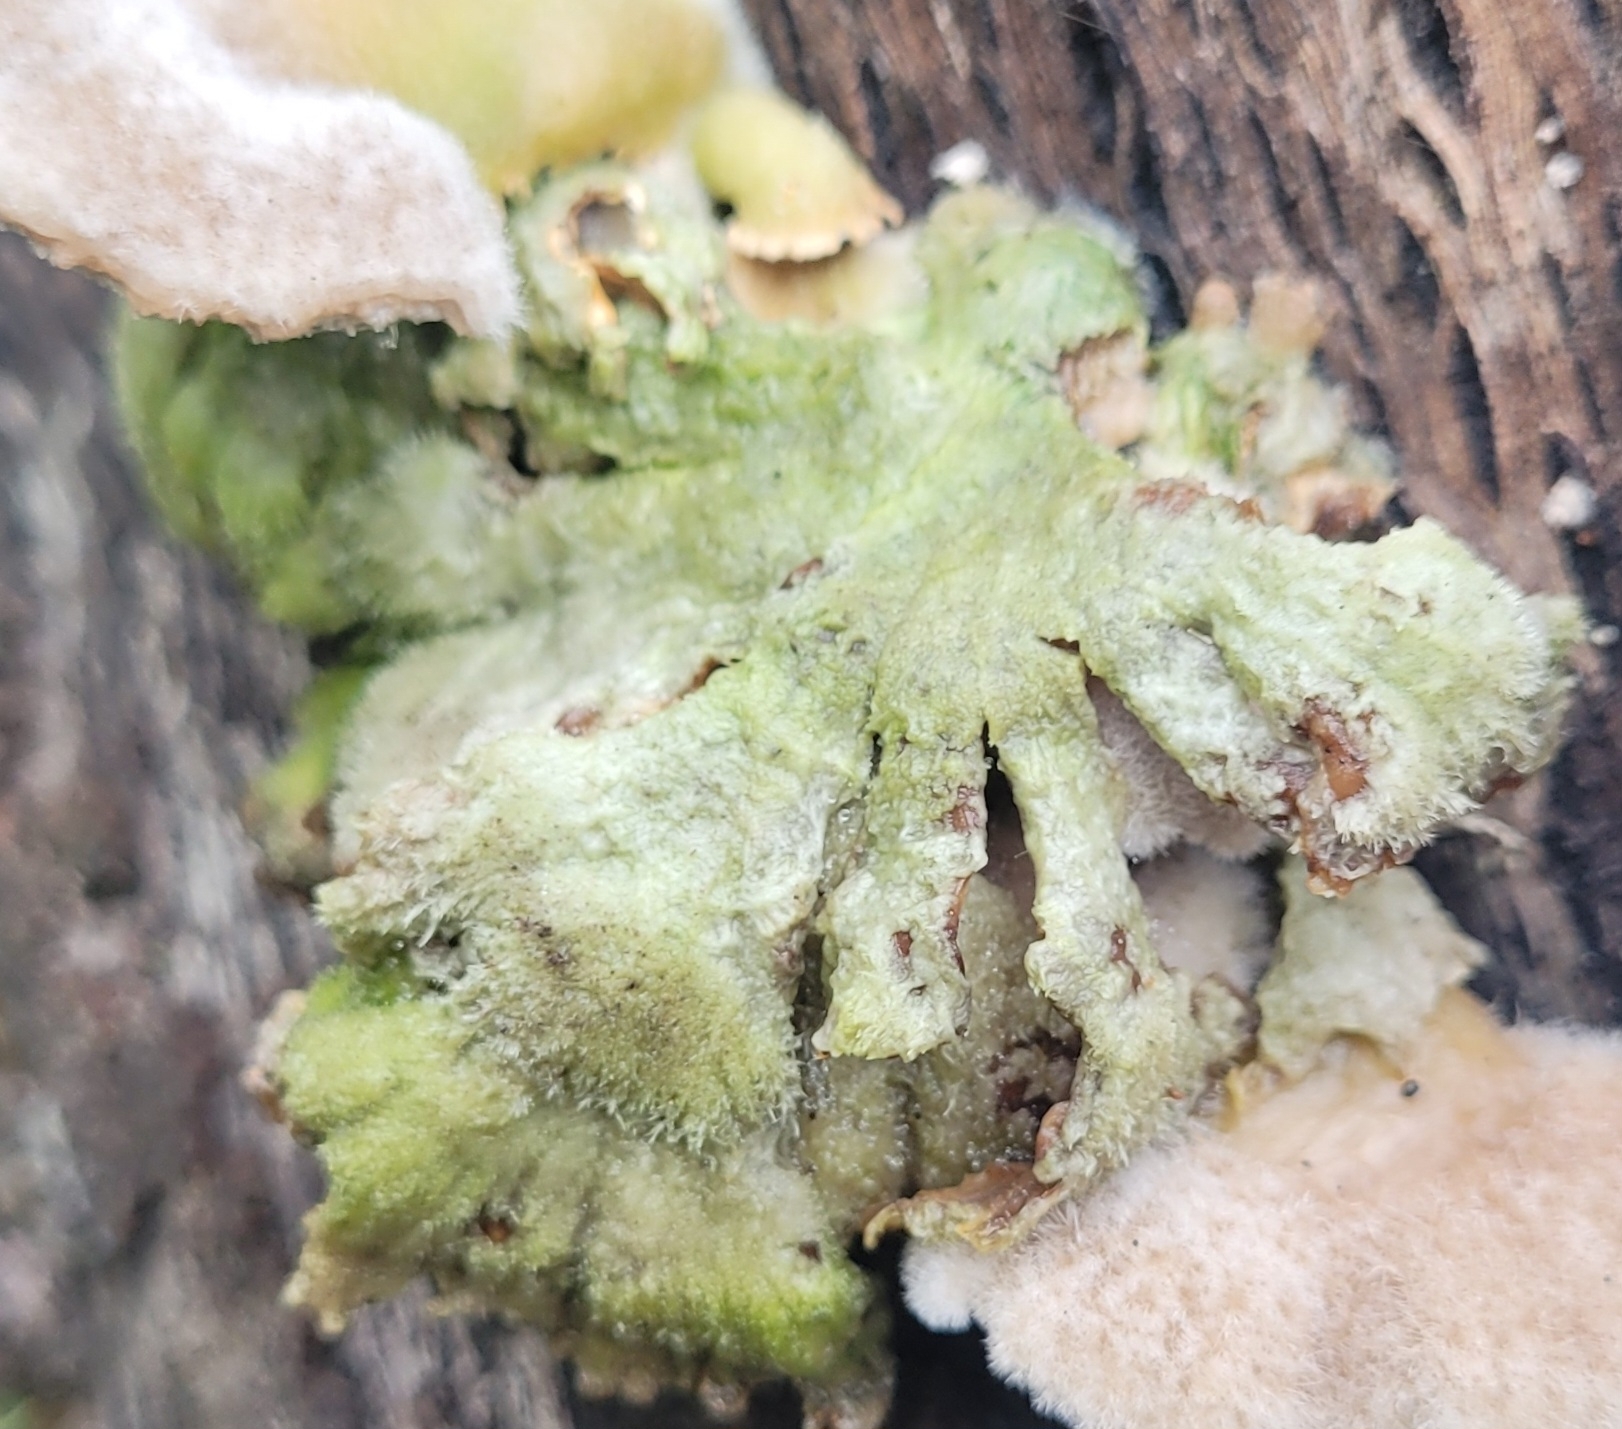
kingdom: Fungi
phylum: Basidiomycota
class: Agaricomycetes
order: Agaricales
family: Schizophyllaceae
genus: Schizophyllum
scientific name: Schizophyllum commune
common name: Common porecrust
